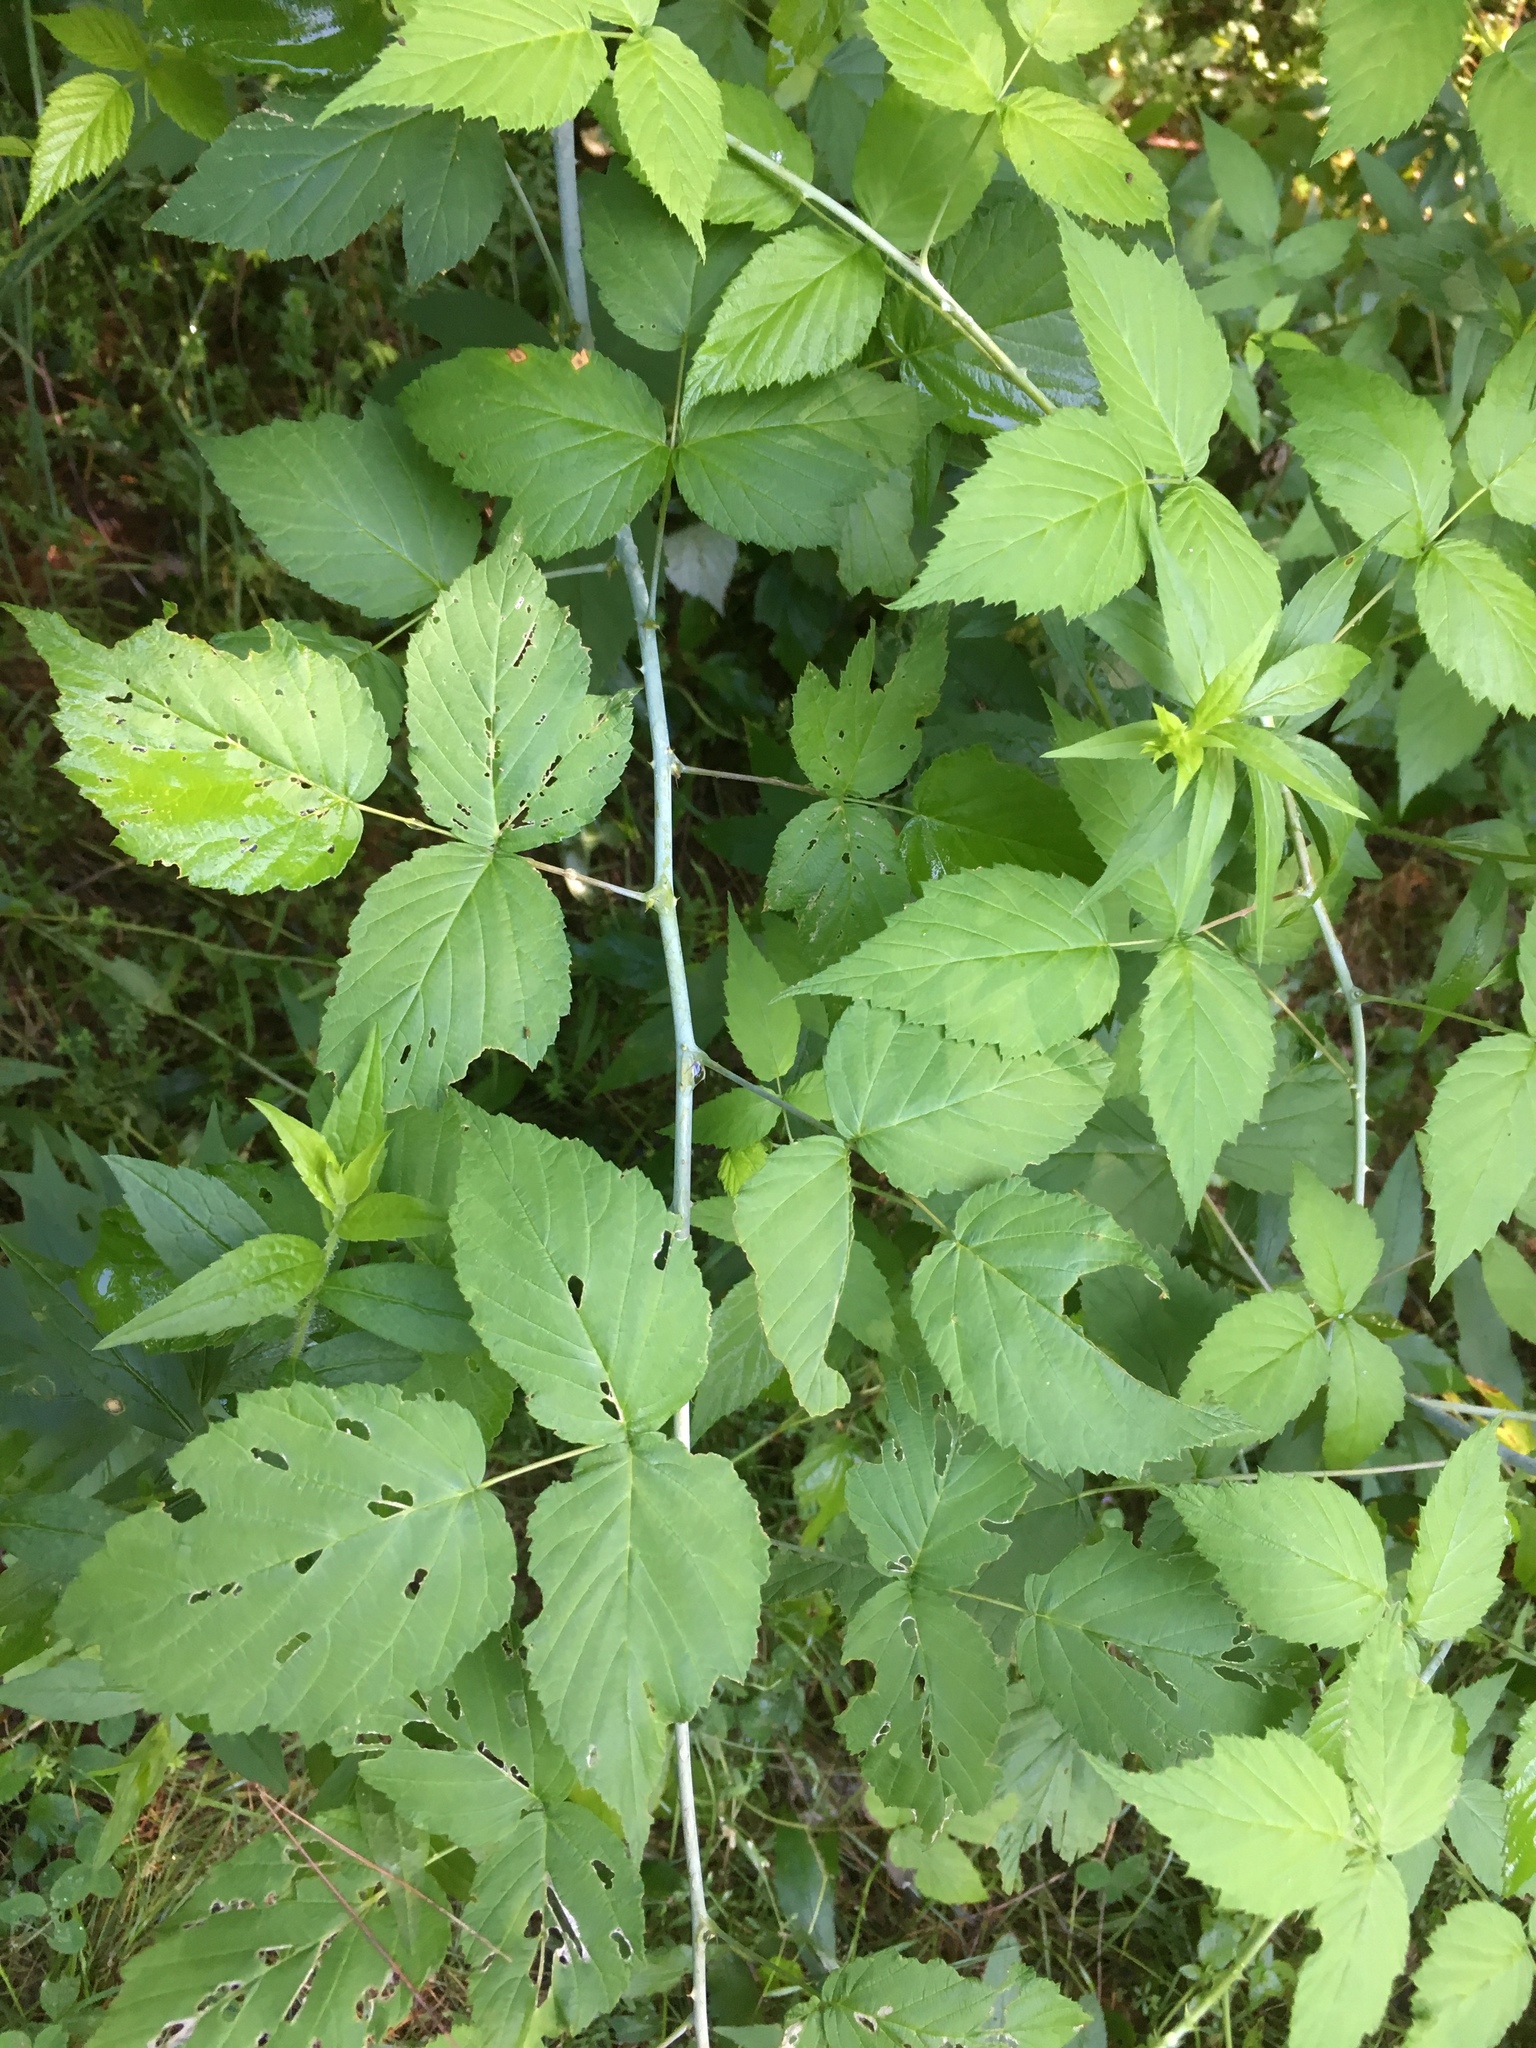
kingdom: Plantae
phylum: Tracheophyta
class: Magnoliopsida
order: Rosales
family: Rosaceae
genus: Rubus
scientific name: Rubus occidentalis
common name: Black raspberry
